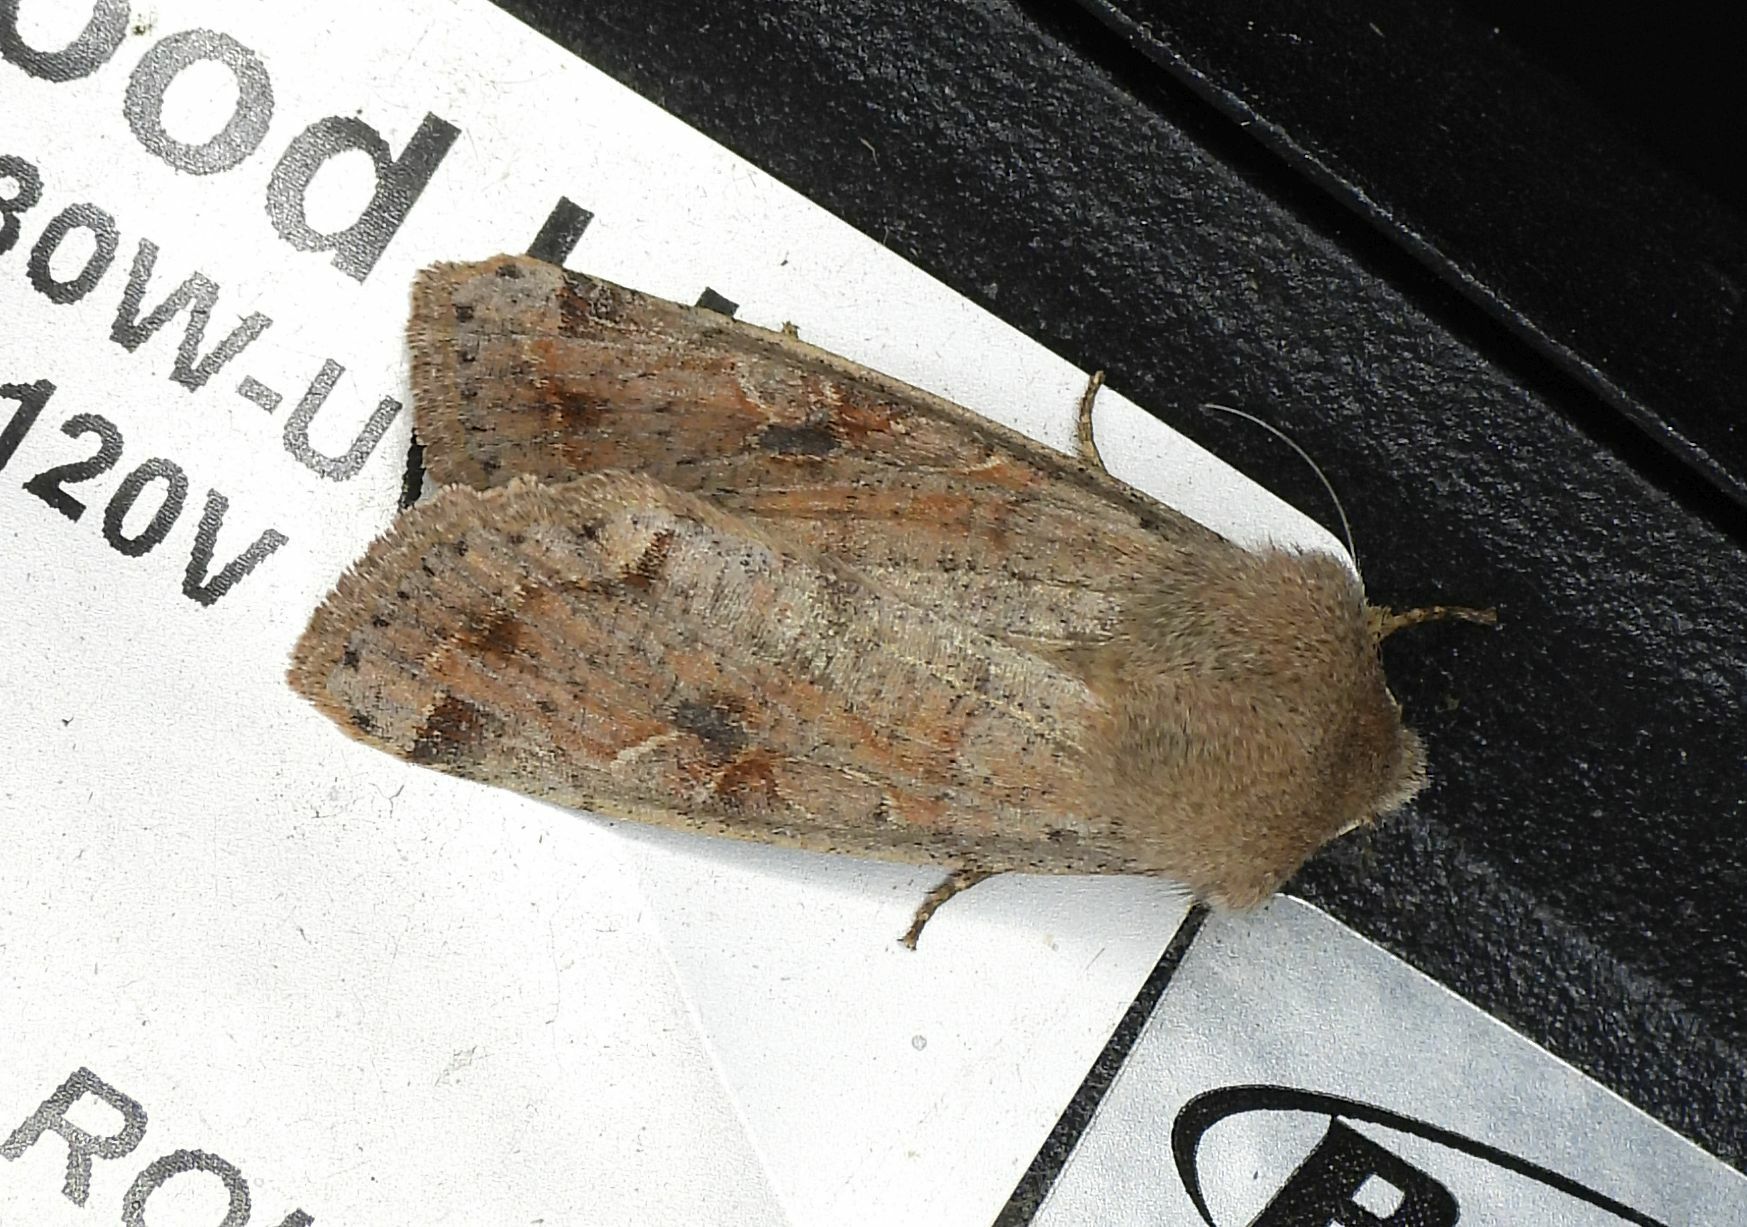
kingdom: Animalia
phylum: Arthropoda
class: Insecta
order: Lepidoptera
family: Noctuidae
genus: Orthosia
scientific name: Orthosia hibisci
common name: Green fruitworm
